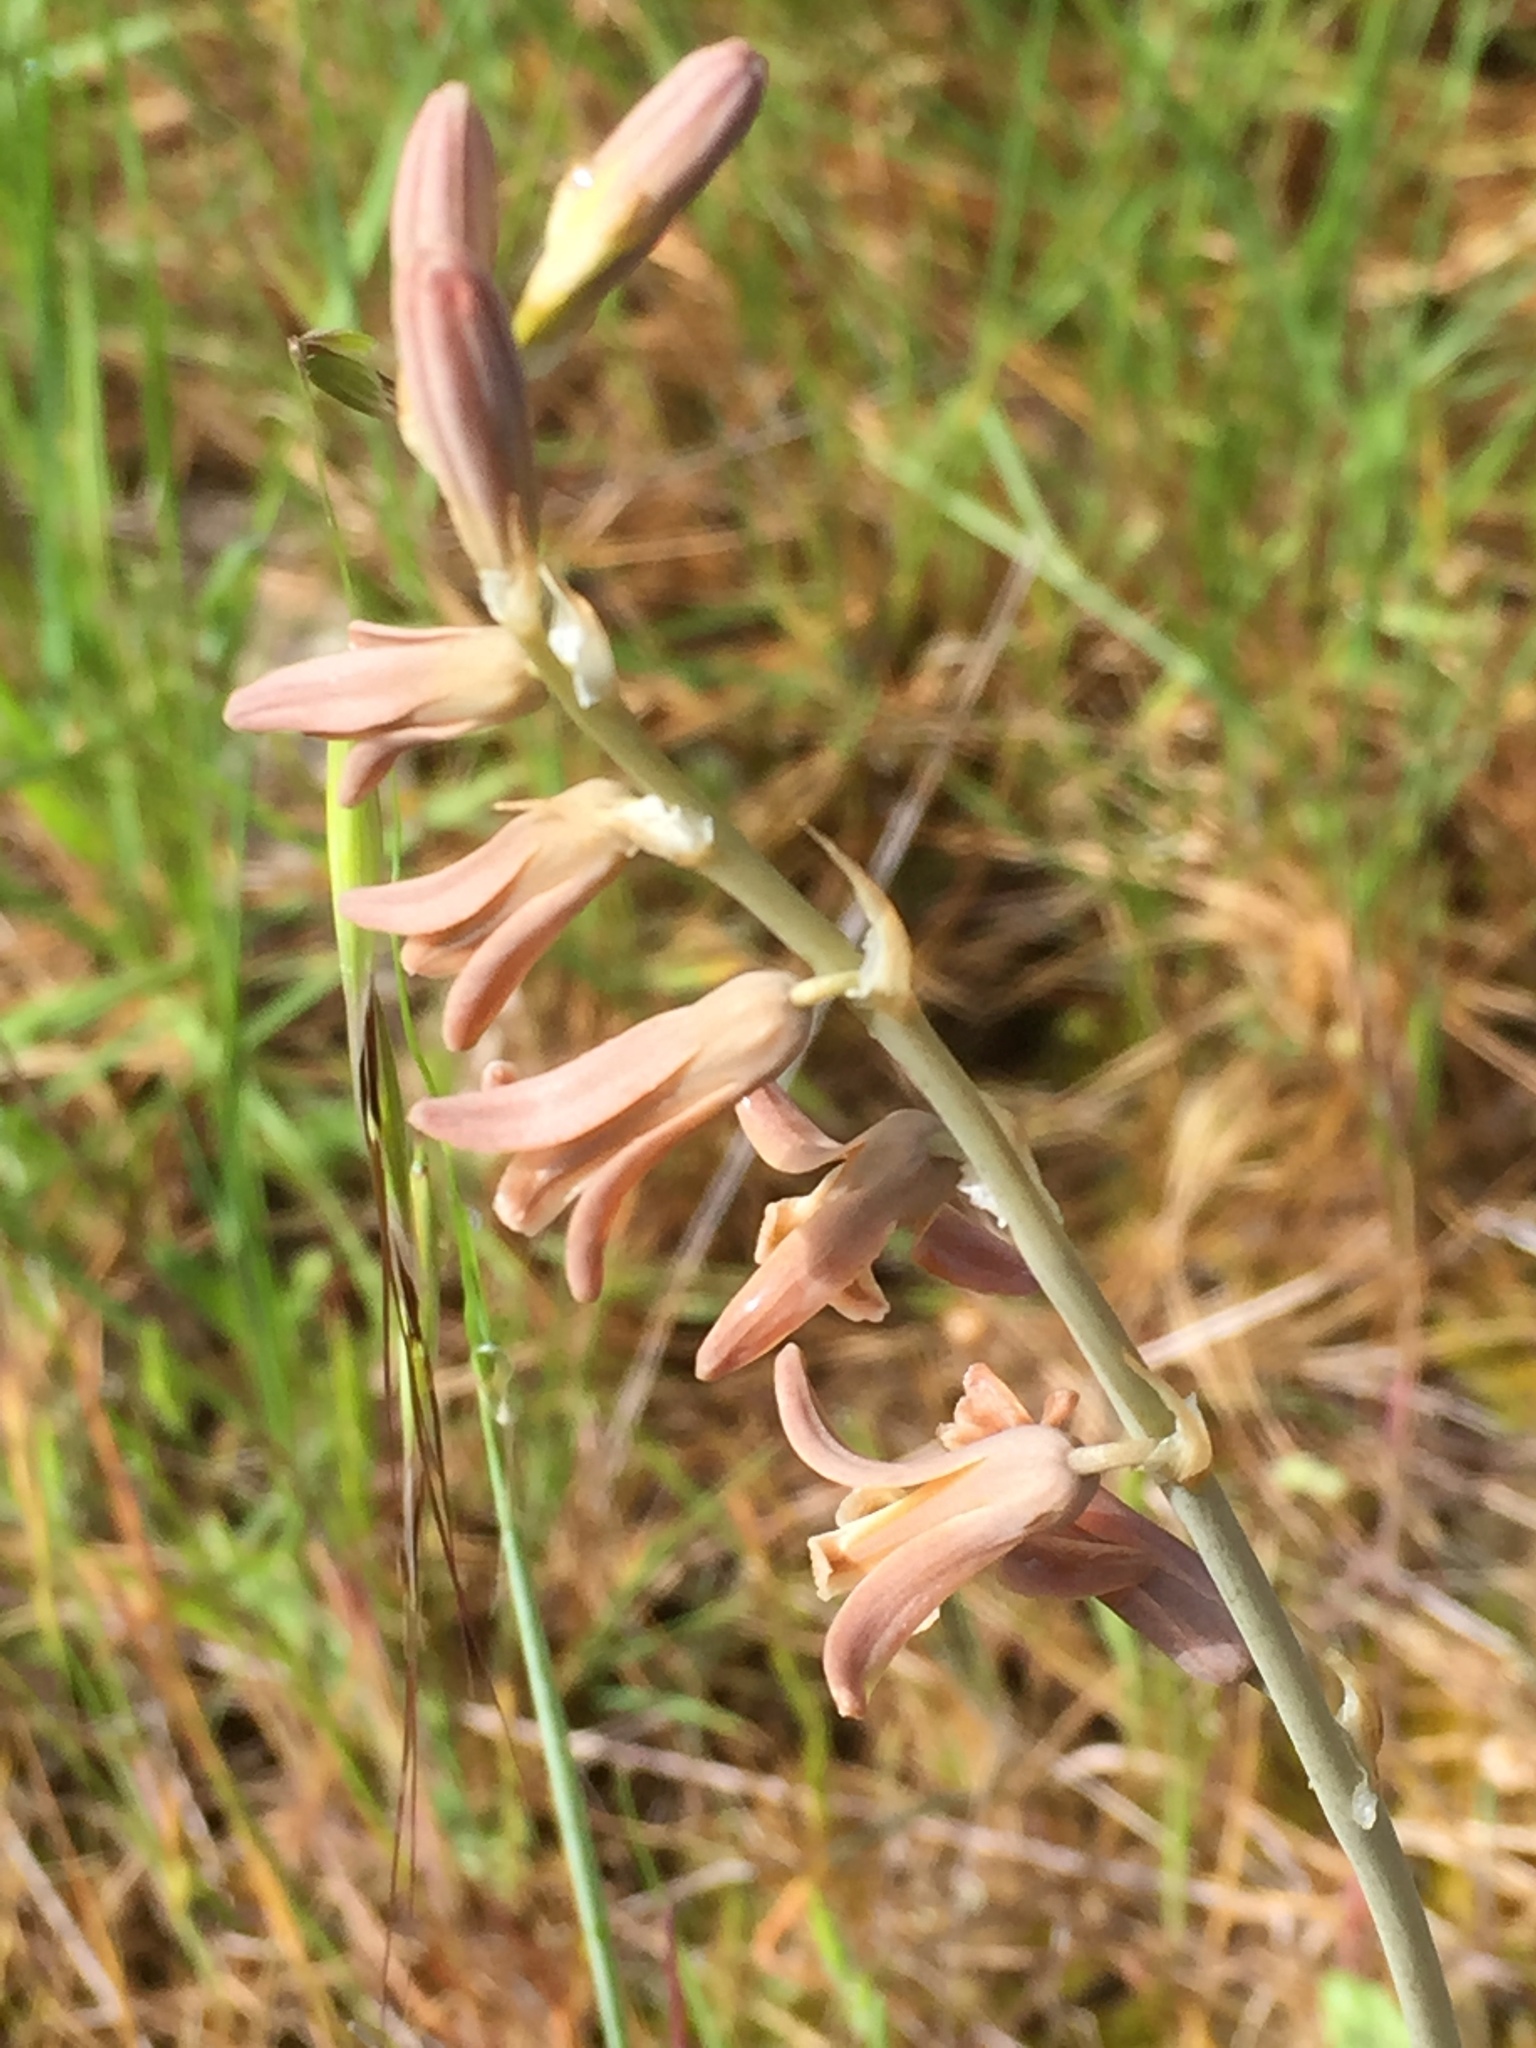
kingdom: Plantae
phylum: Tracheophyta
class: Liliopsida
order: Asparagales
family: Asparagaceae
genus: Dipcadi
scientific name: Dipcadi serotinum
